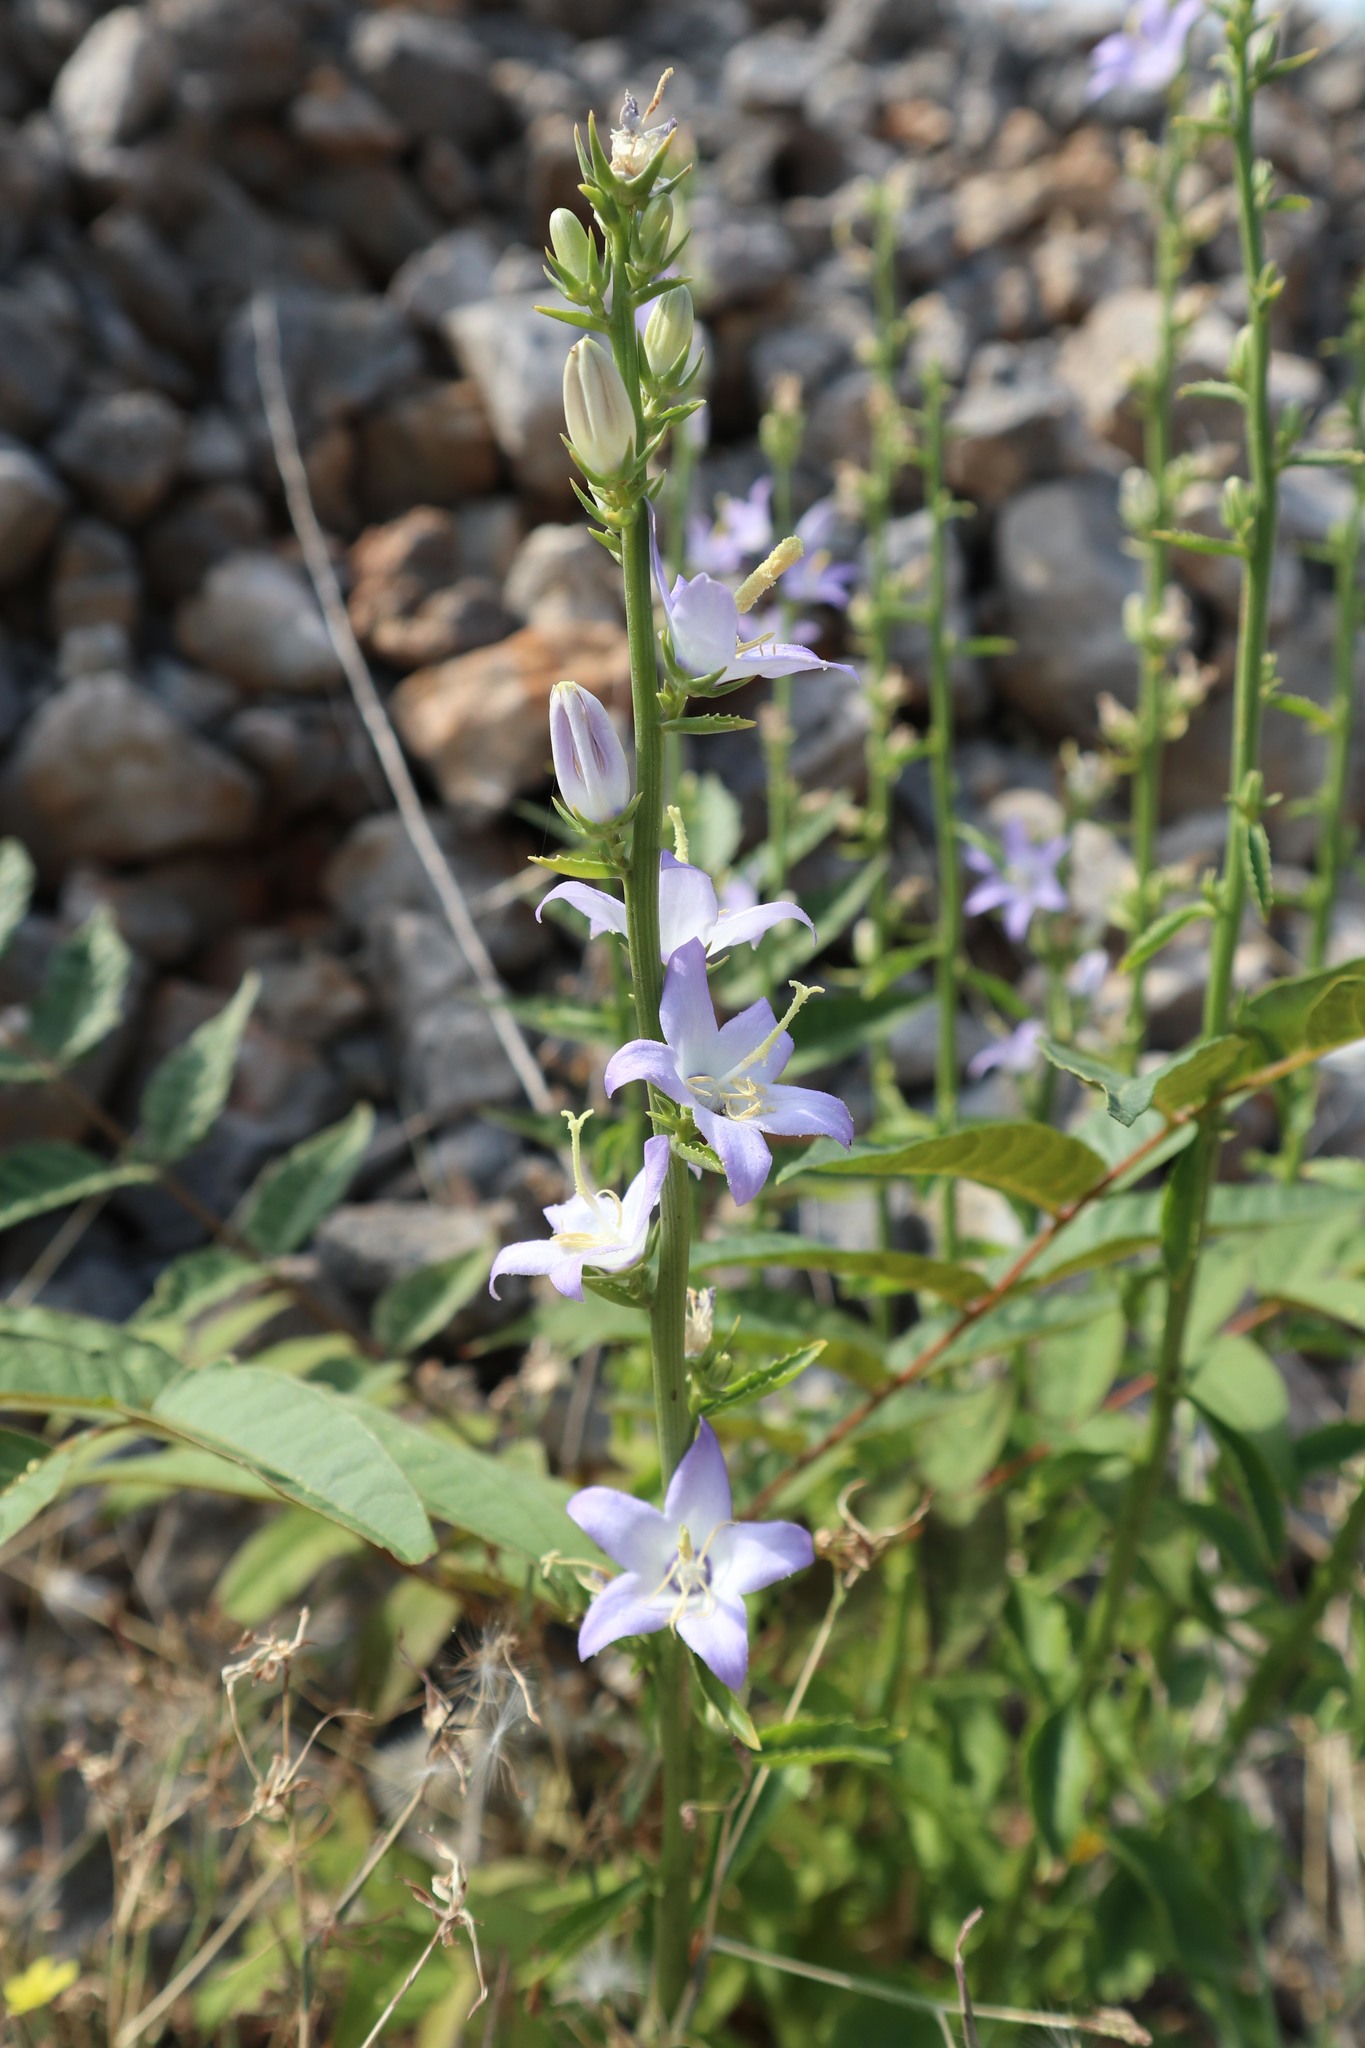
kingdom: Plantae
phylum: Tracheophyta
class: Magnoliopsida
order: Asterales
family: Campanulaceae
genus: Campanula
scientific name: Campanula pyramidalis
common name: Chimney bellflower
